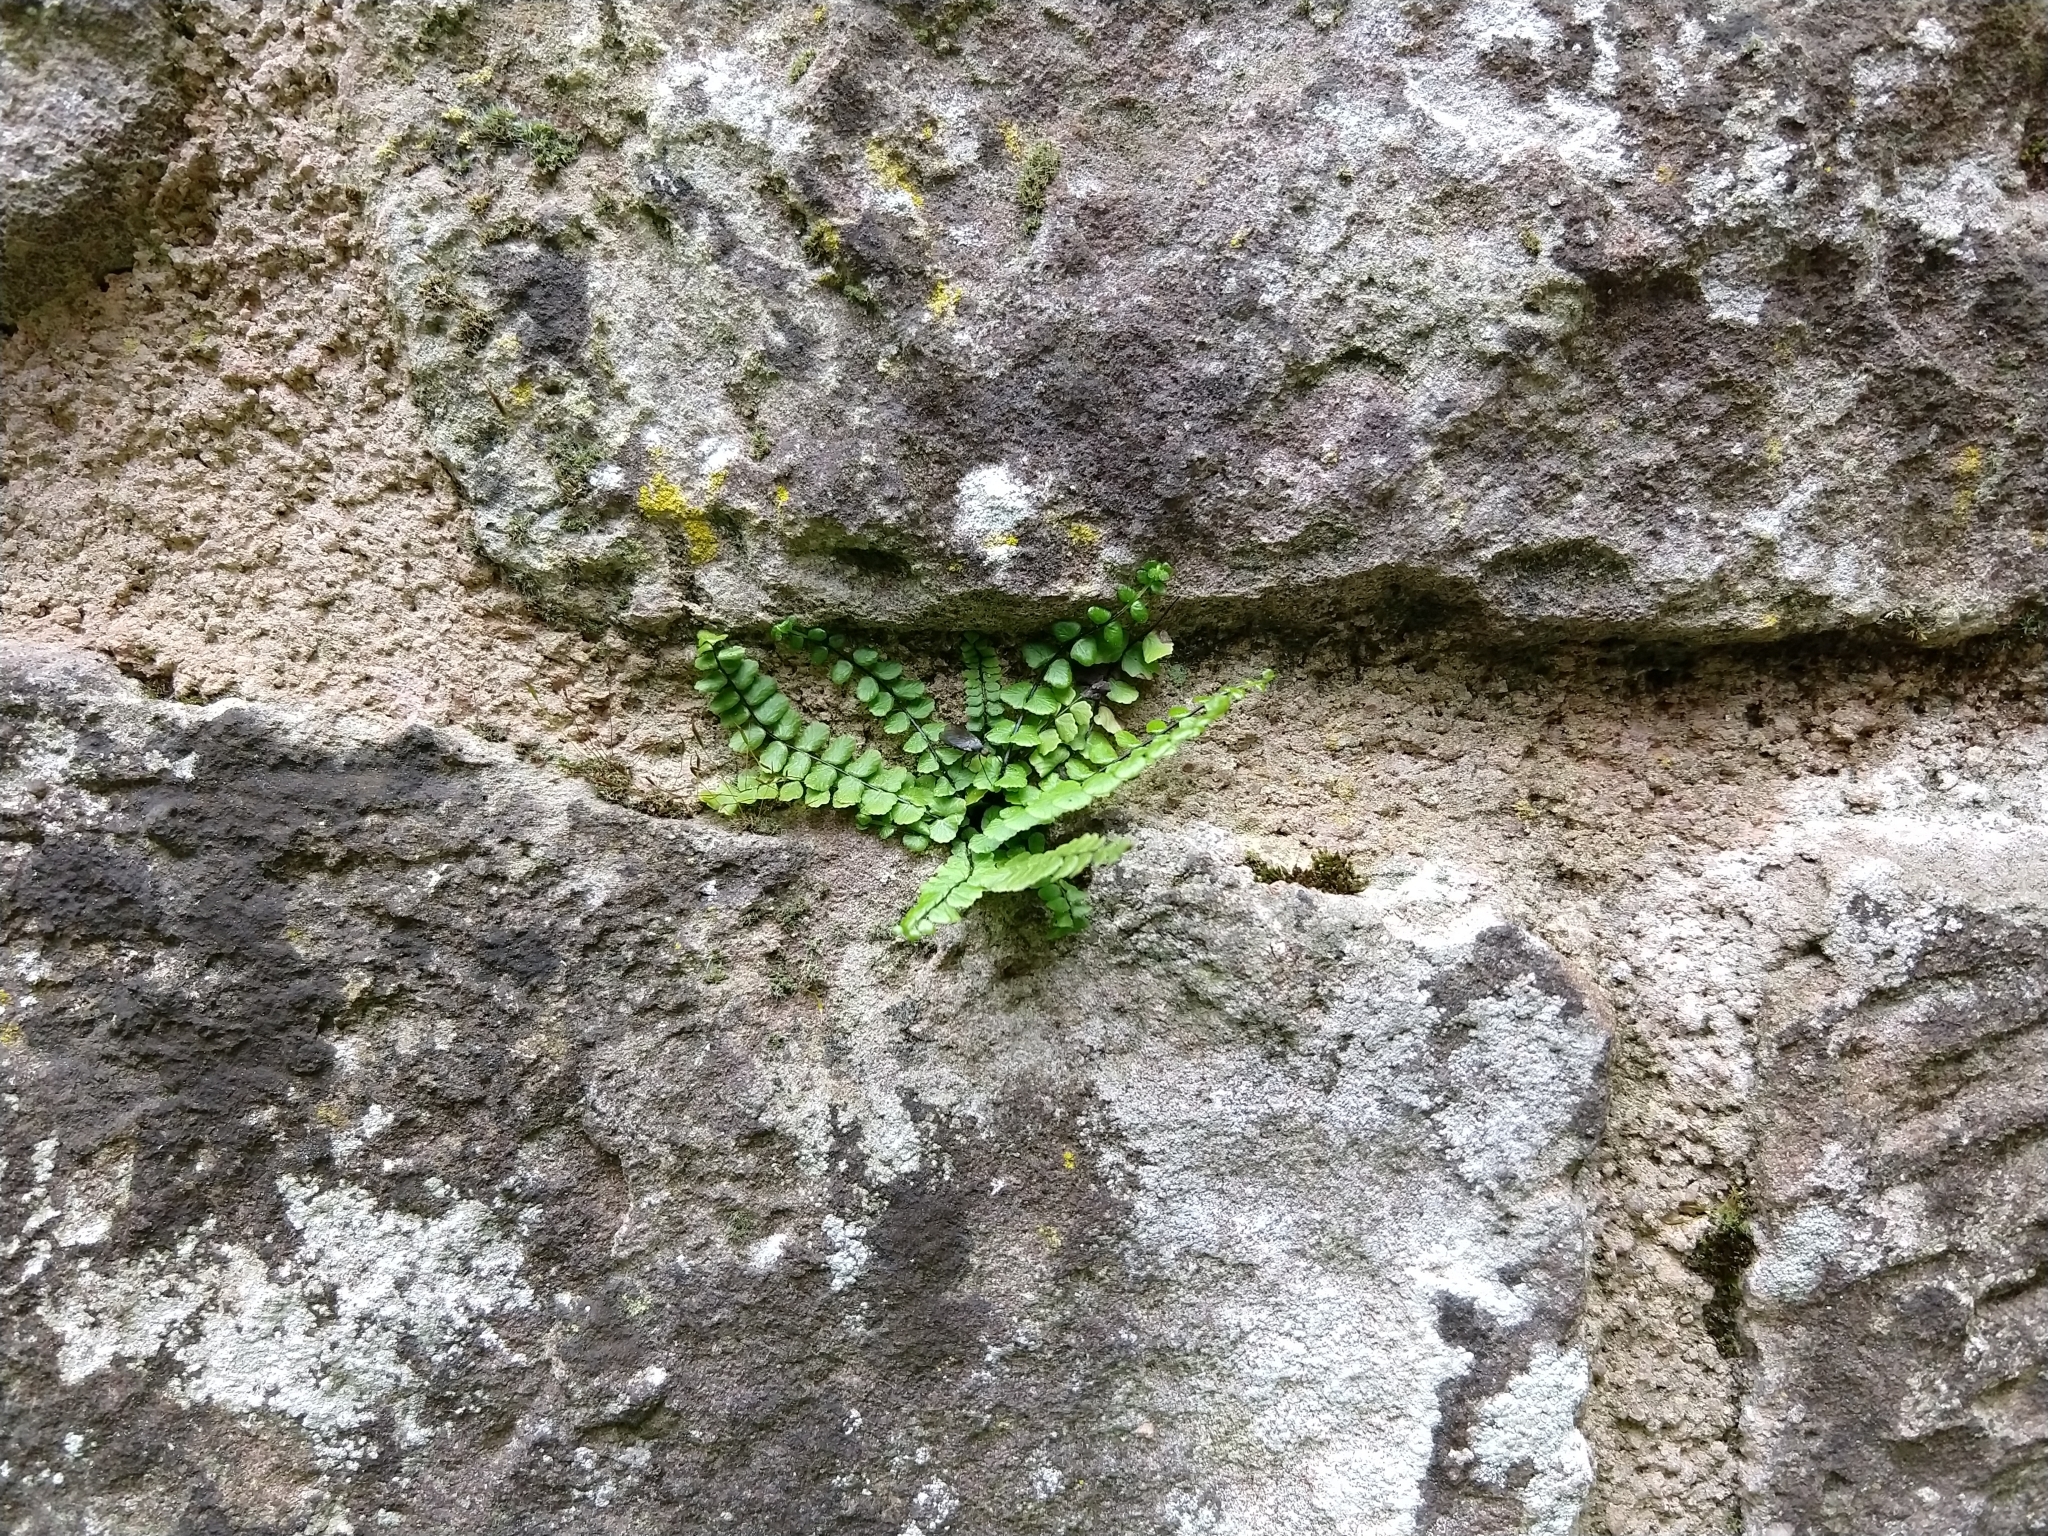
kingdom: Plantae
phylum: Tracheophyta
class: Polypodiopsida
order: Polypodiales
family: Aspleniaceae
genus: Asplenium
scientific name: Asplenium trichomanes
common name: Maidenhair spleenwort
